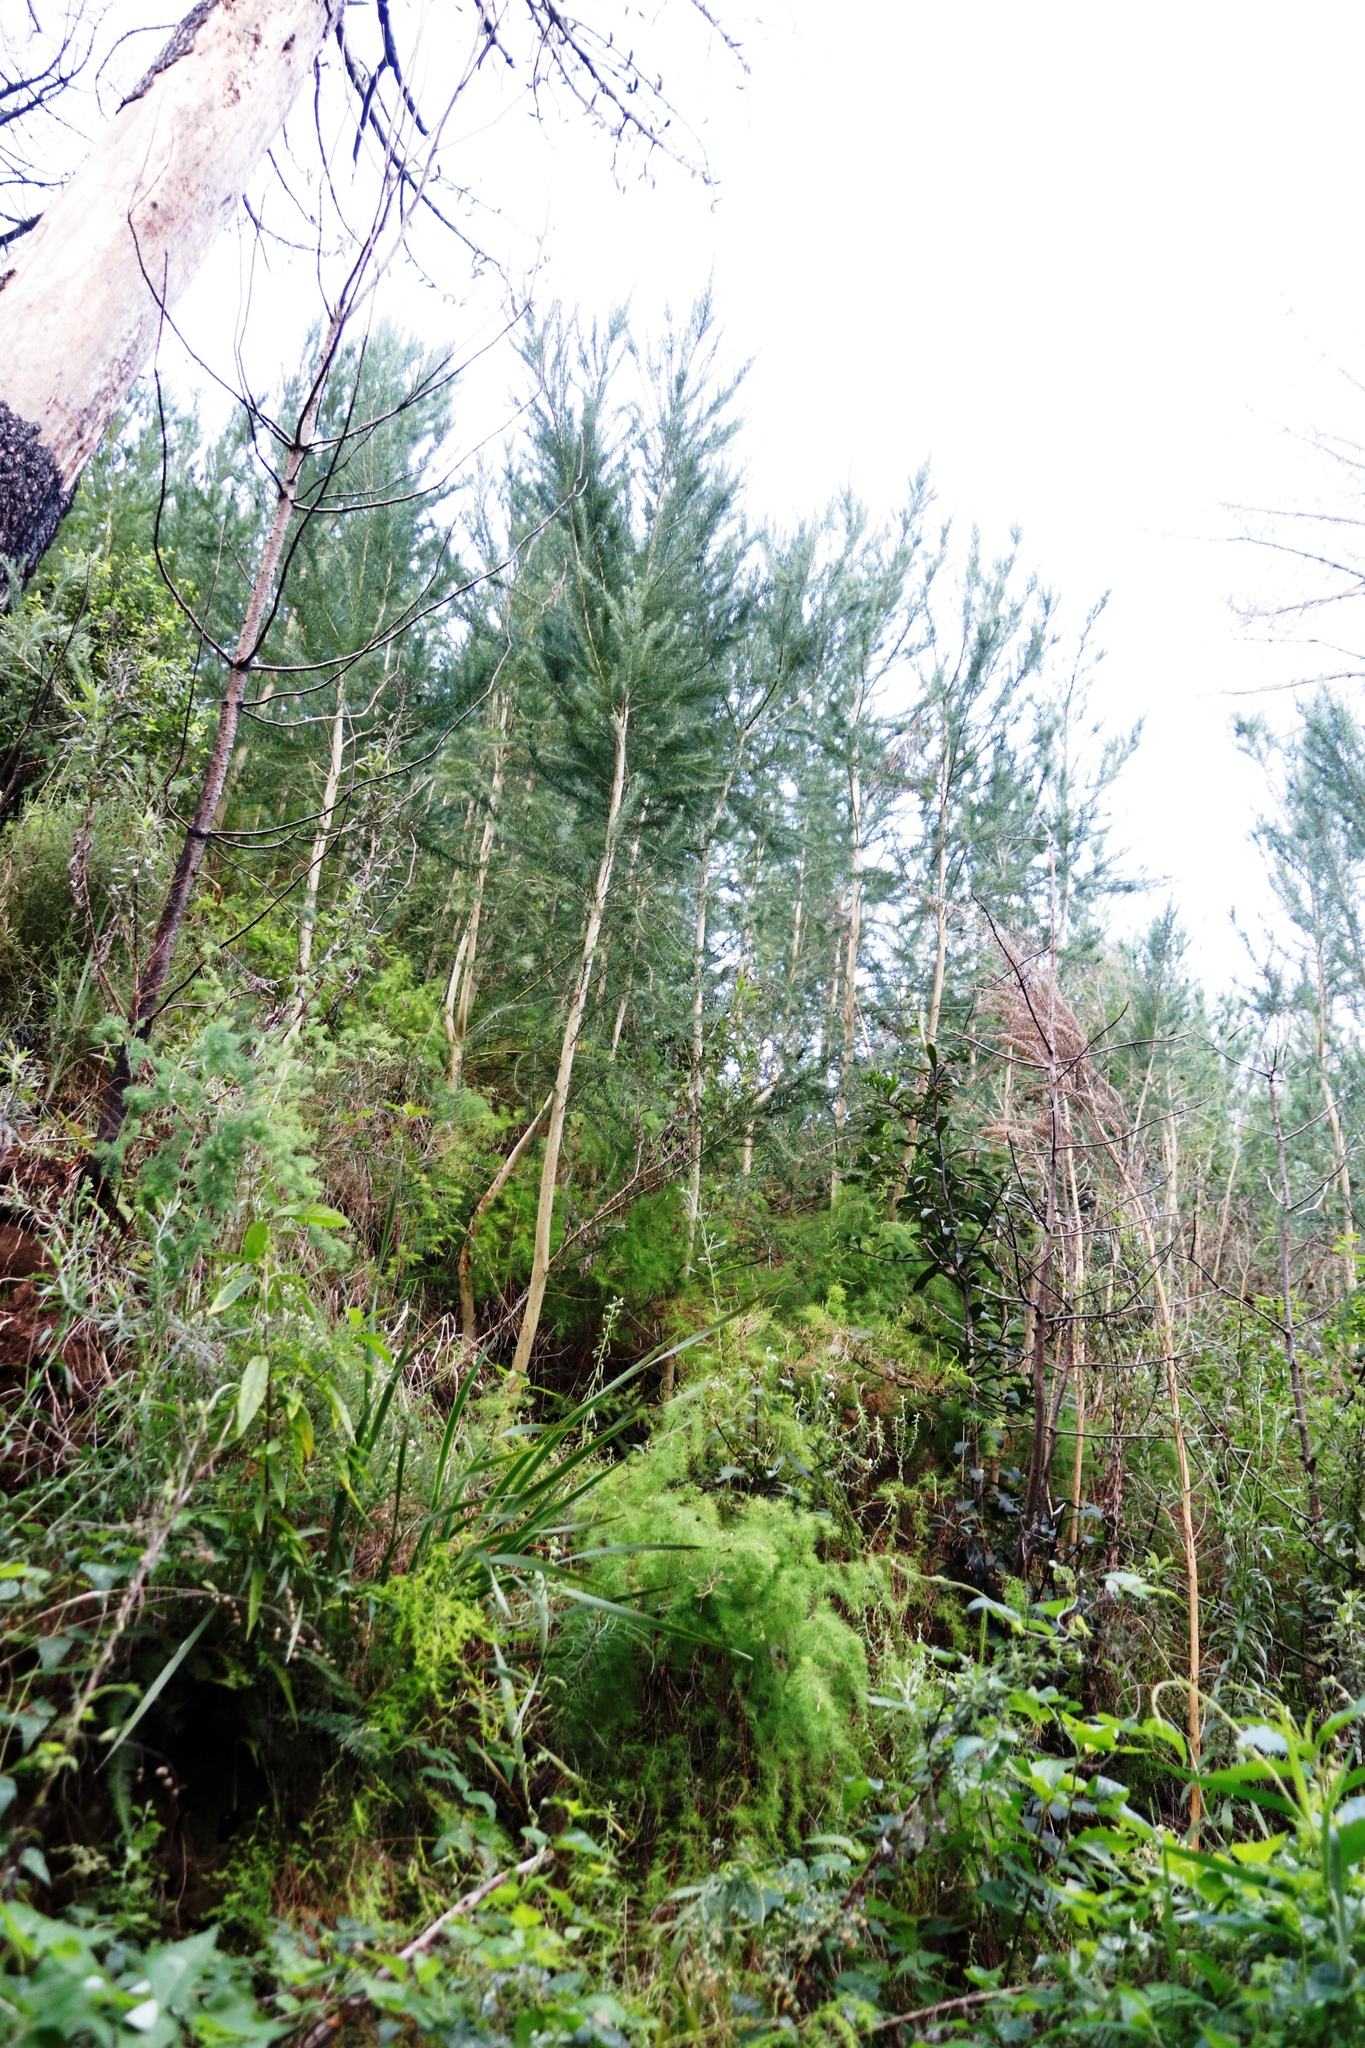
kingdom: Plantae
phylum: Tracheophyta
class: Magnoliopsida
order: Fabales
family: Fabaceae
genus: Aspalathus
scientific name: Aspalathus macrantha
